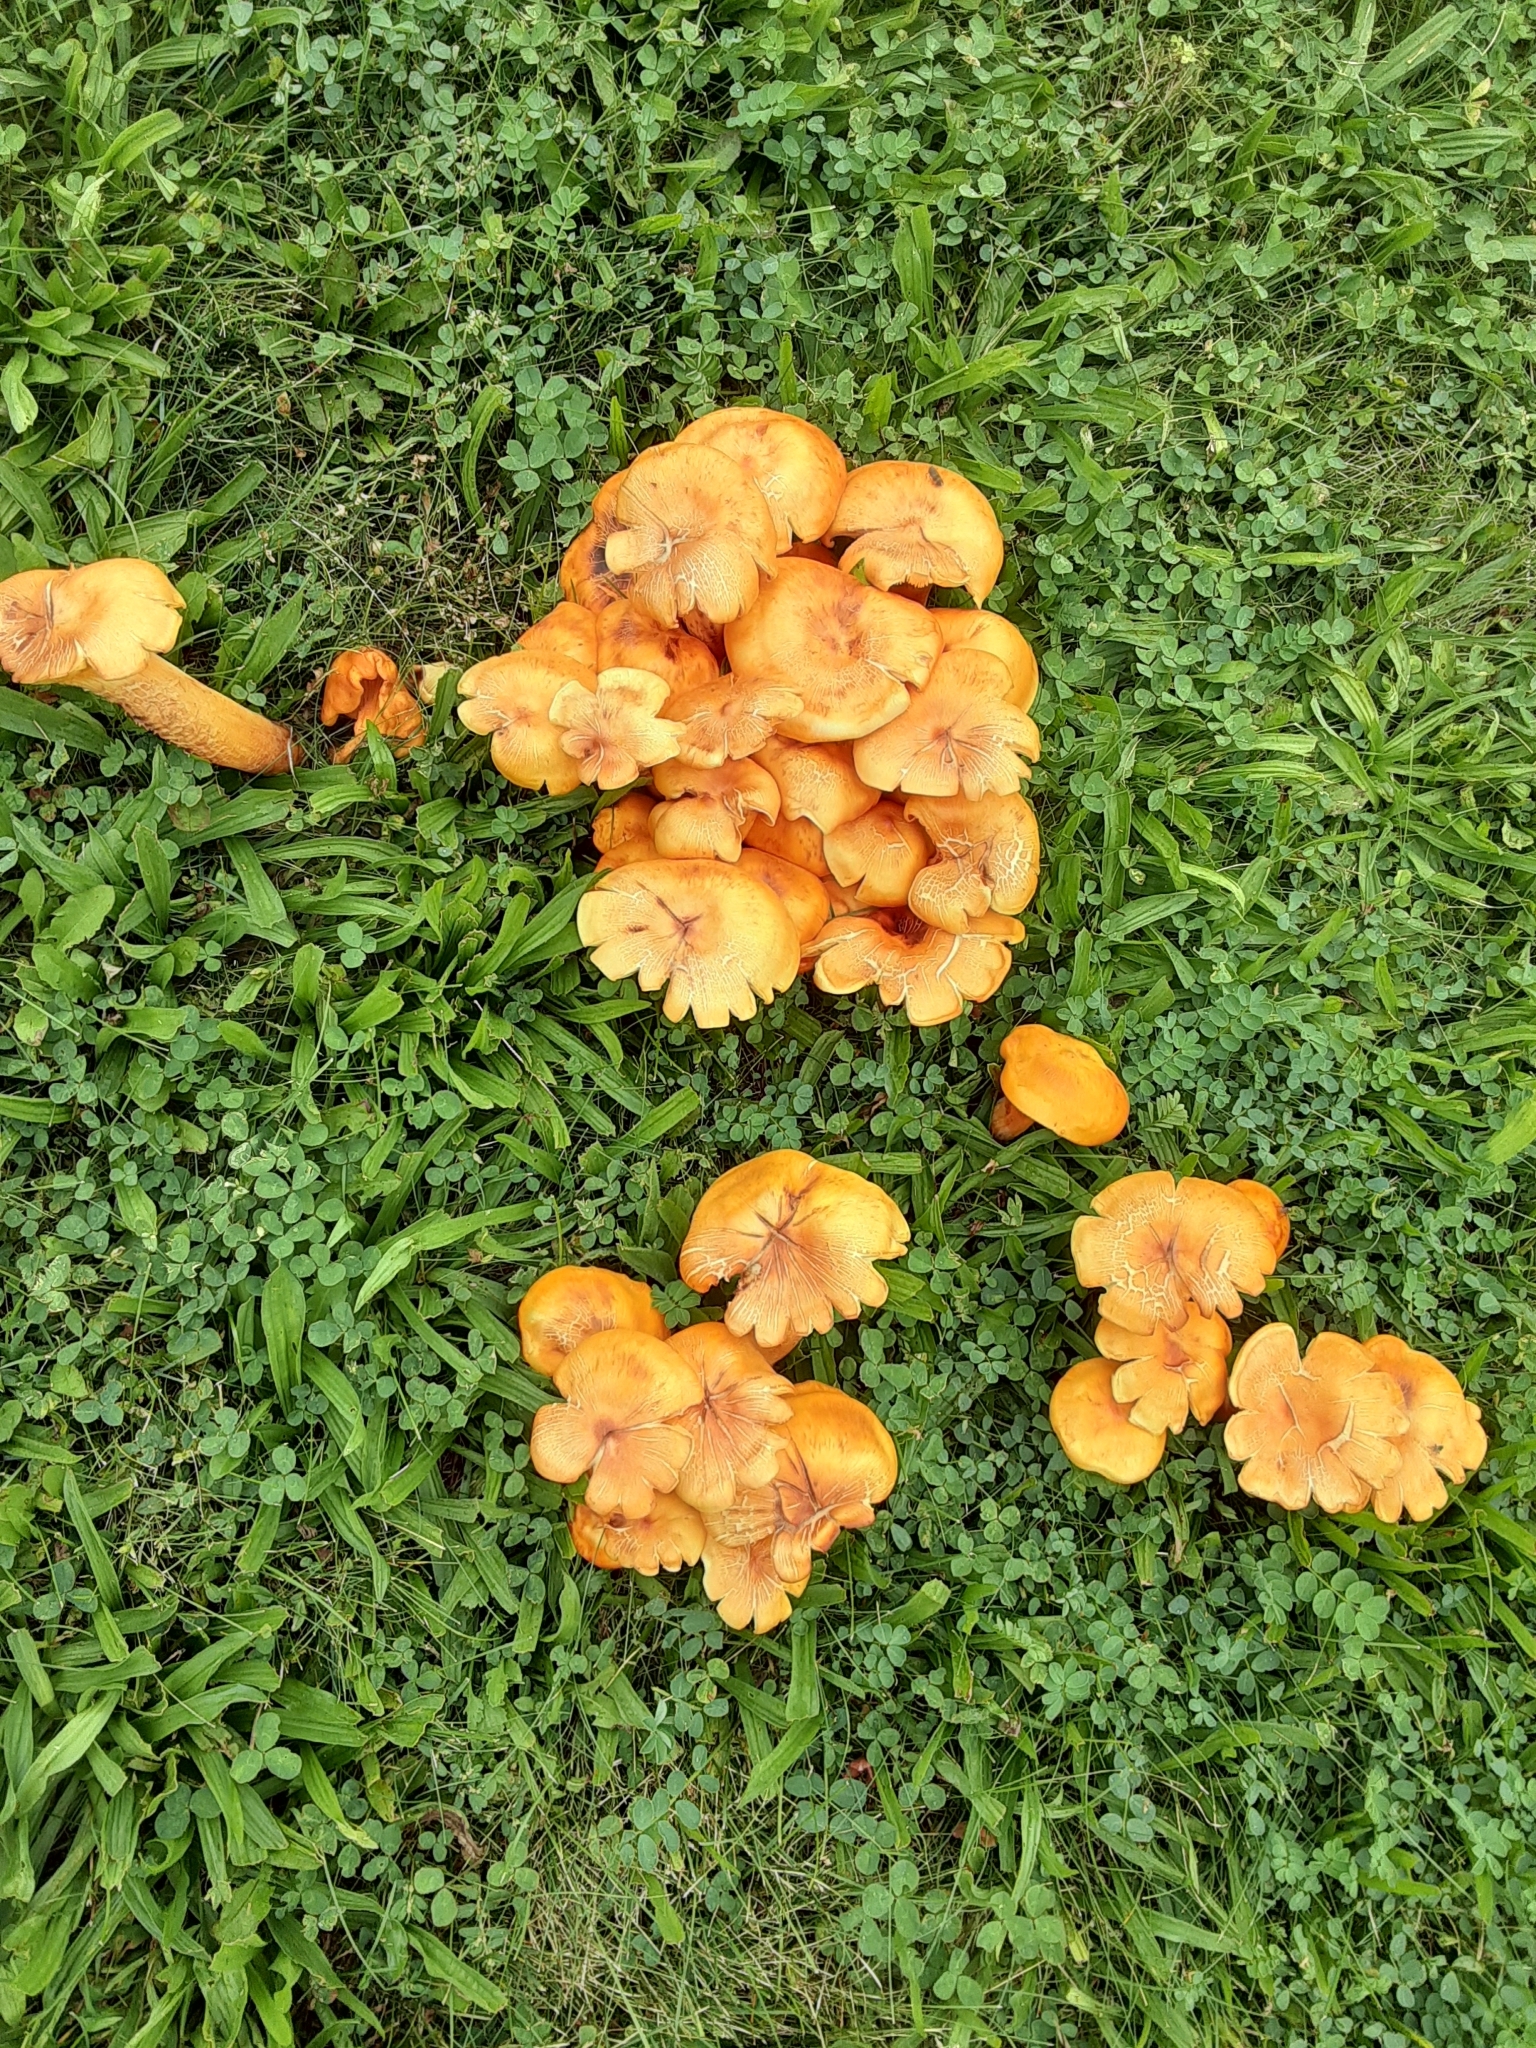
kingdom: Fungi
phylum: Basidiomycota
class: Agaricomycetes
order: Agaricales
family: Omphalotaceae
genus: Omphalotus
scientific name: Omphalotus illudens
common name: Jack o lantern
